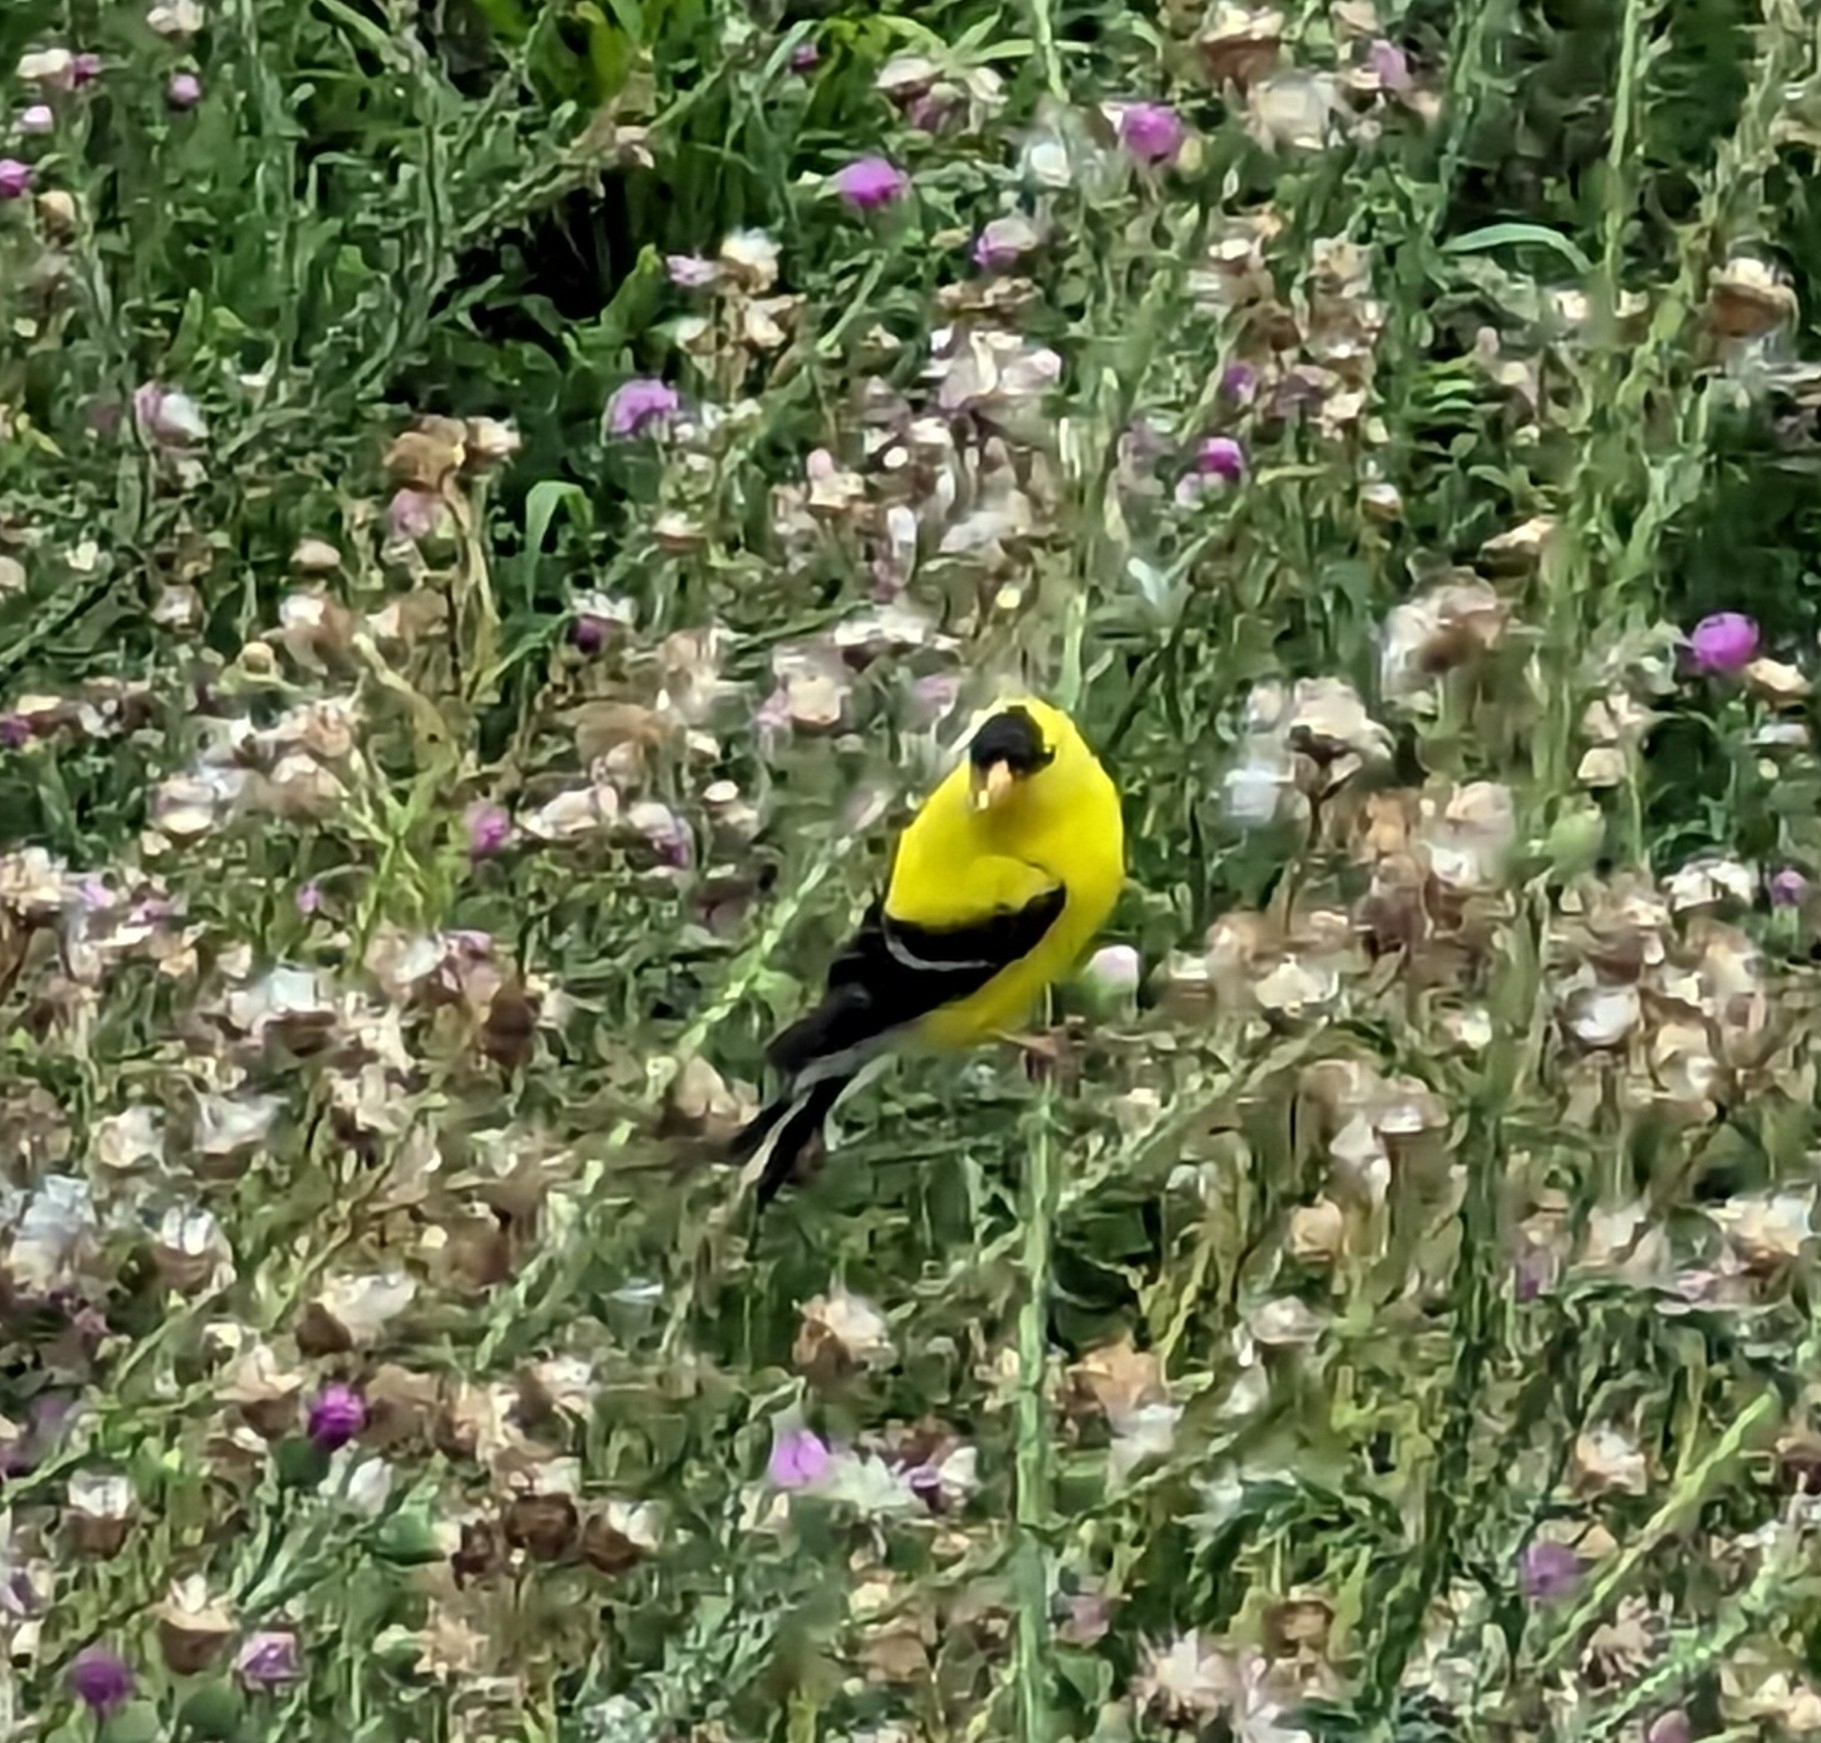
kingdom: Animalia
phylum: Chordata
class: Aves
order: Passeriformes
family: Fringillidae
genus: Spinus
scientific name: Spinus tristis
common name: American goldfinch
